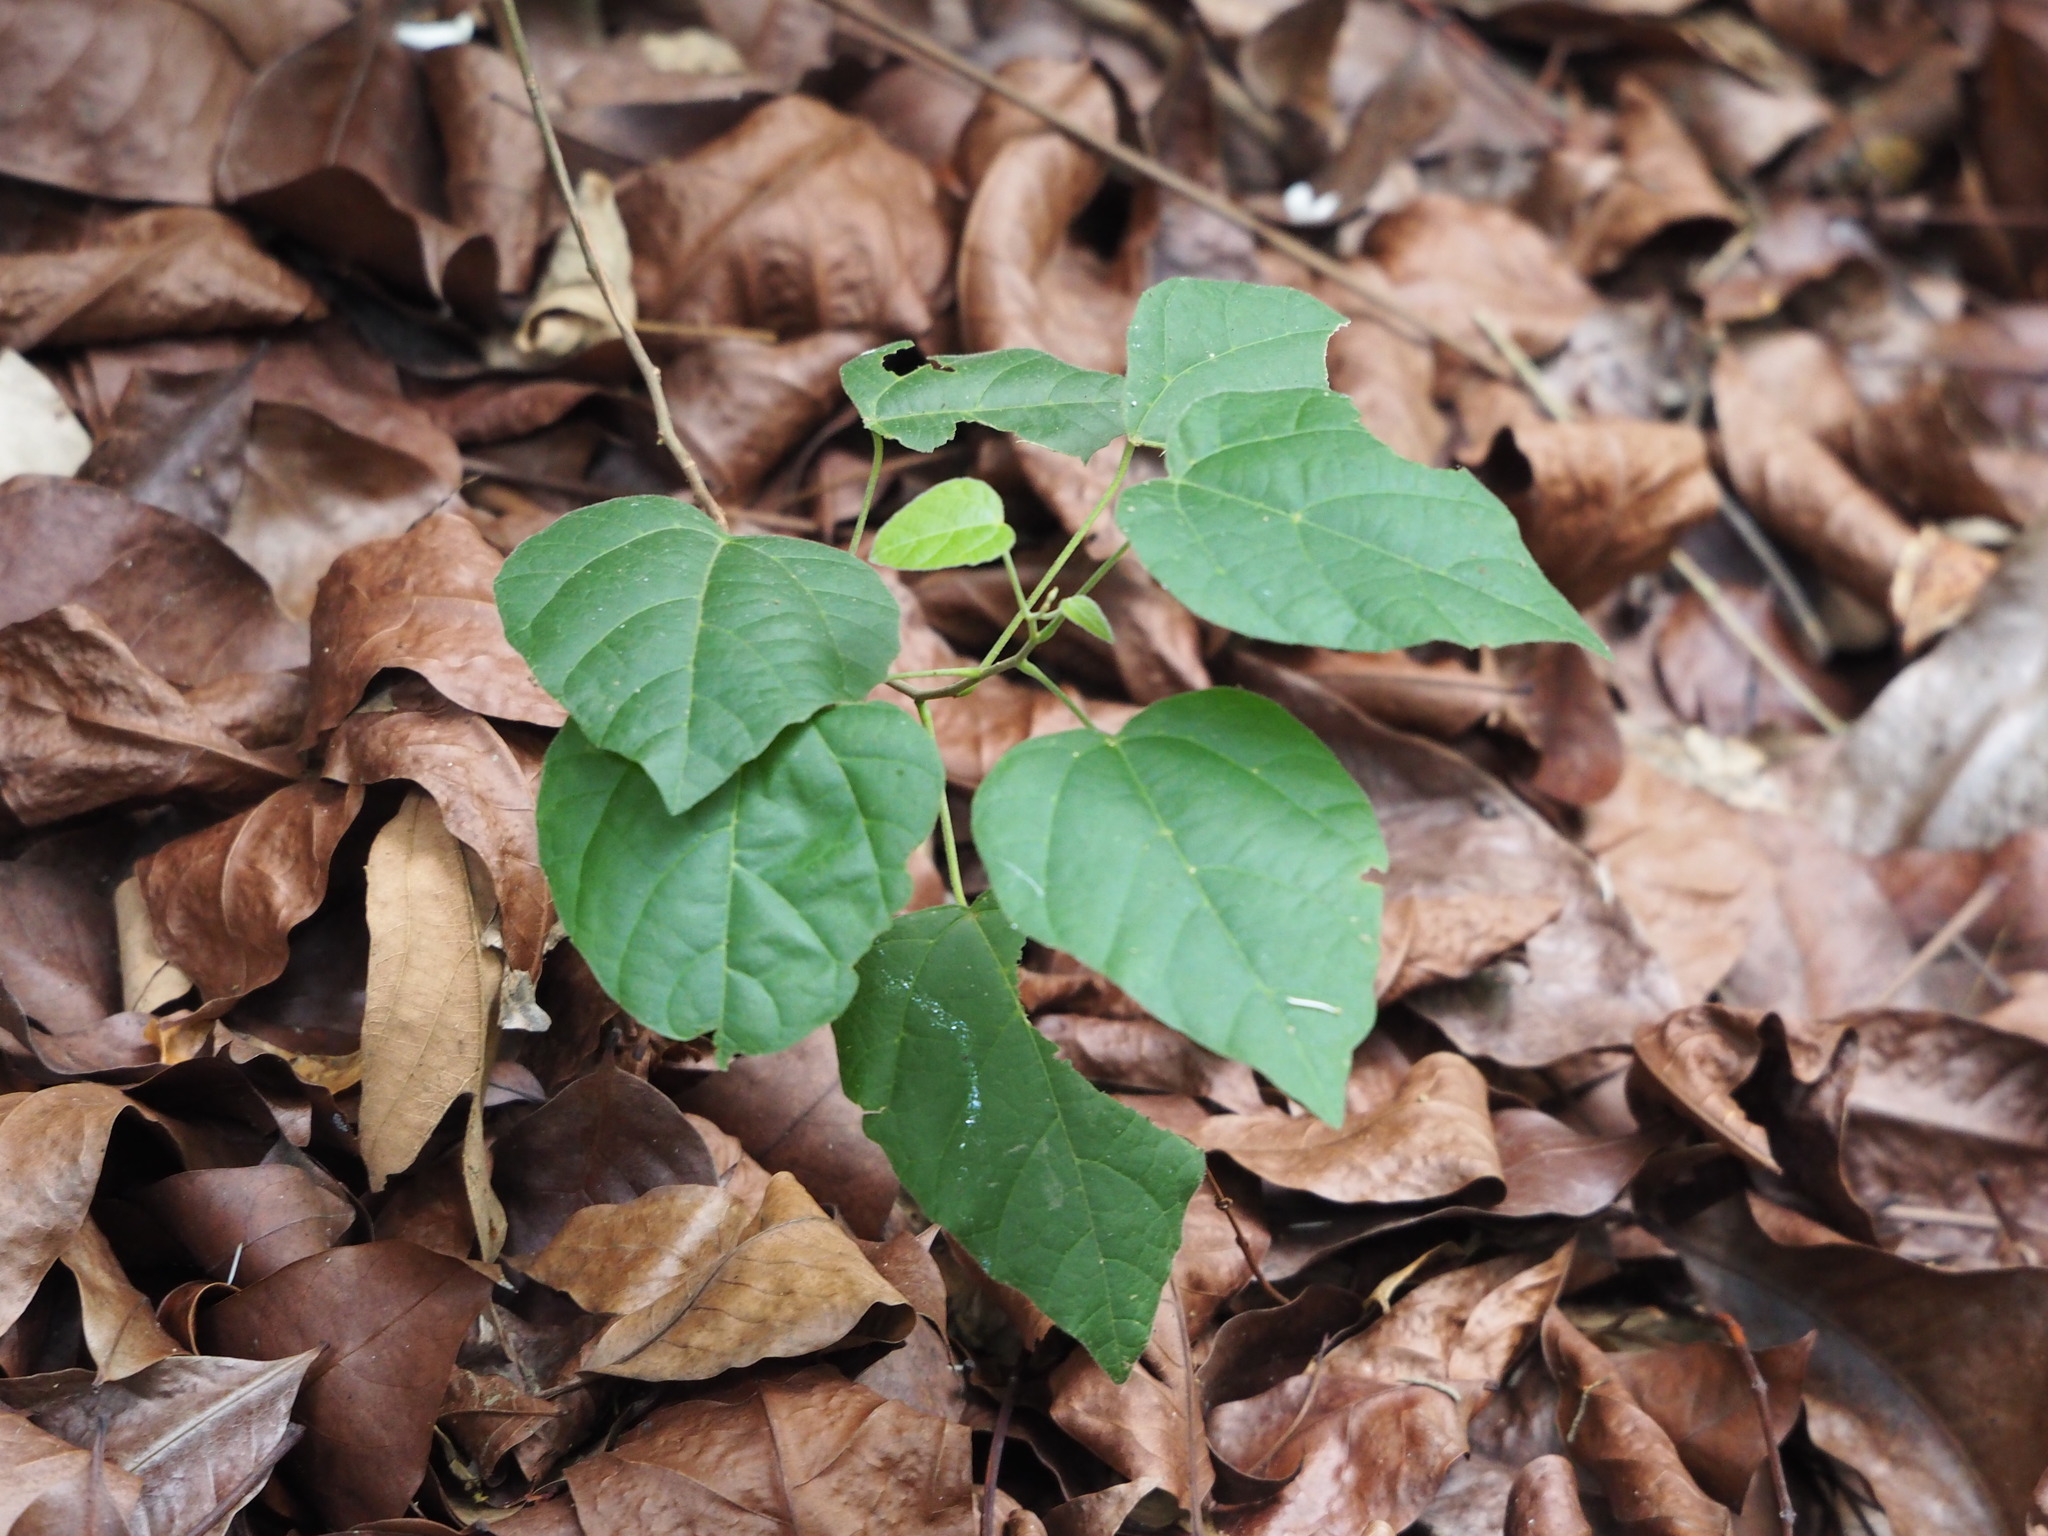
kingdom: Plantae
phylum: Tracheophyta
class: Magnoliopsida
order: Malpighiales
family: Euphorbiaceae
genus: Mallotus
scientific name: Mallotus repandus
